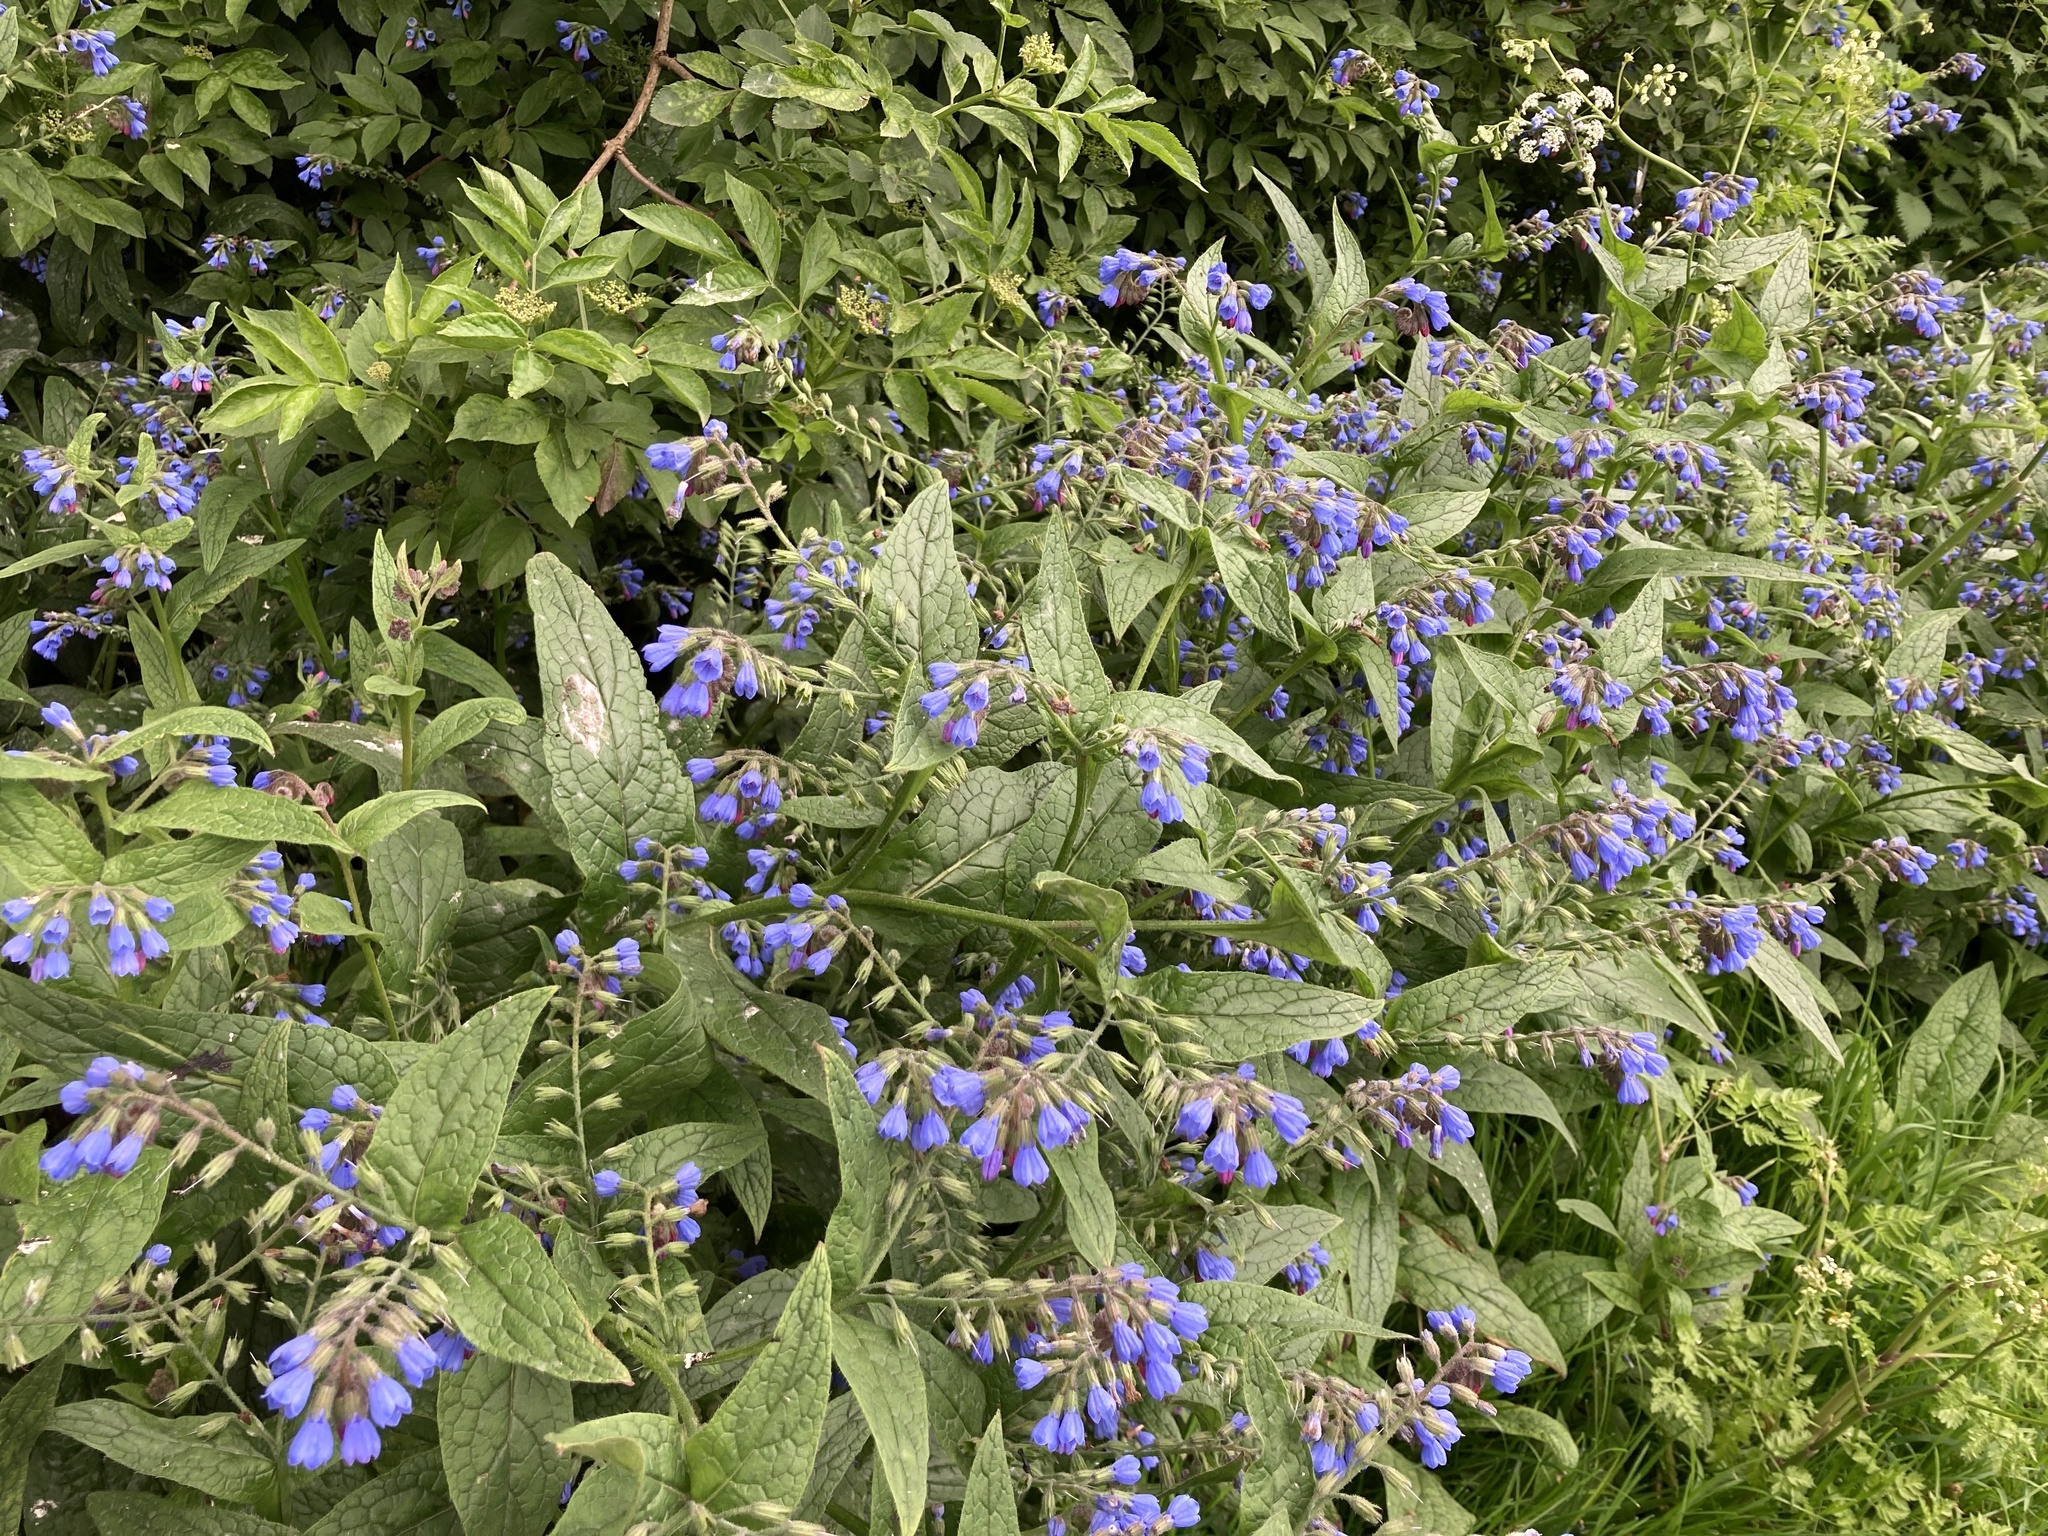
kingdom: Plantae
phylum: Tracheophyta
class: Magnoliopsida
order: Boraginales
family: Boraginaceae
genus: Symphytum
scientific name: Symphytum caucasicum
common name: Caucasian comfrey
